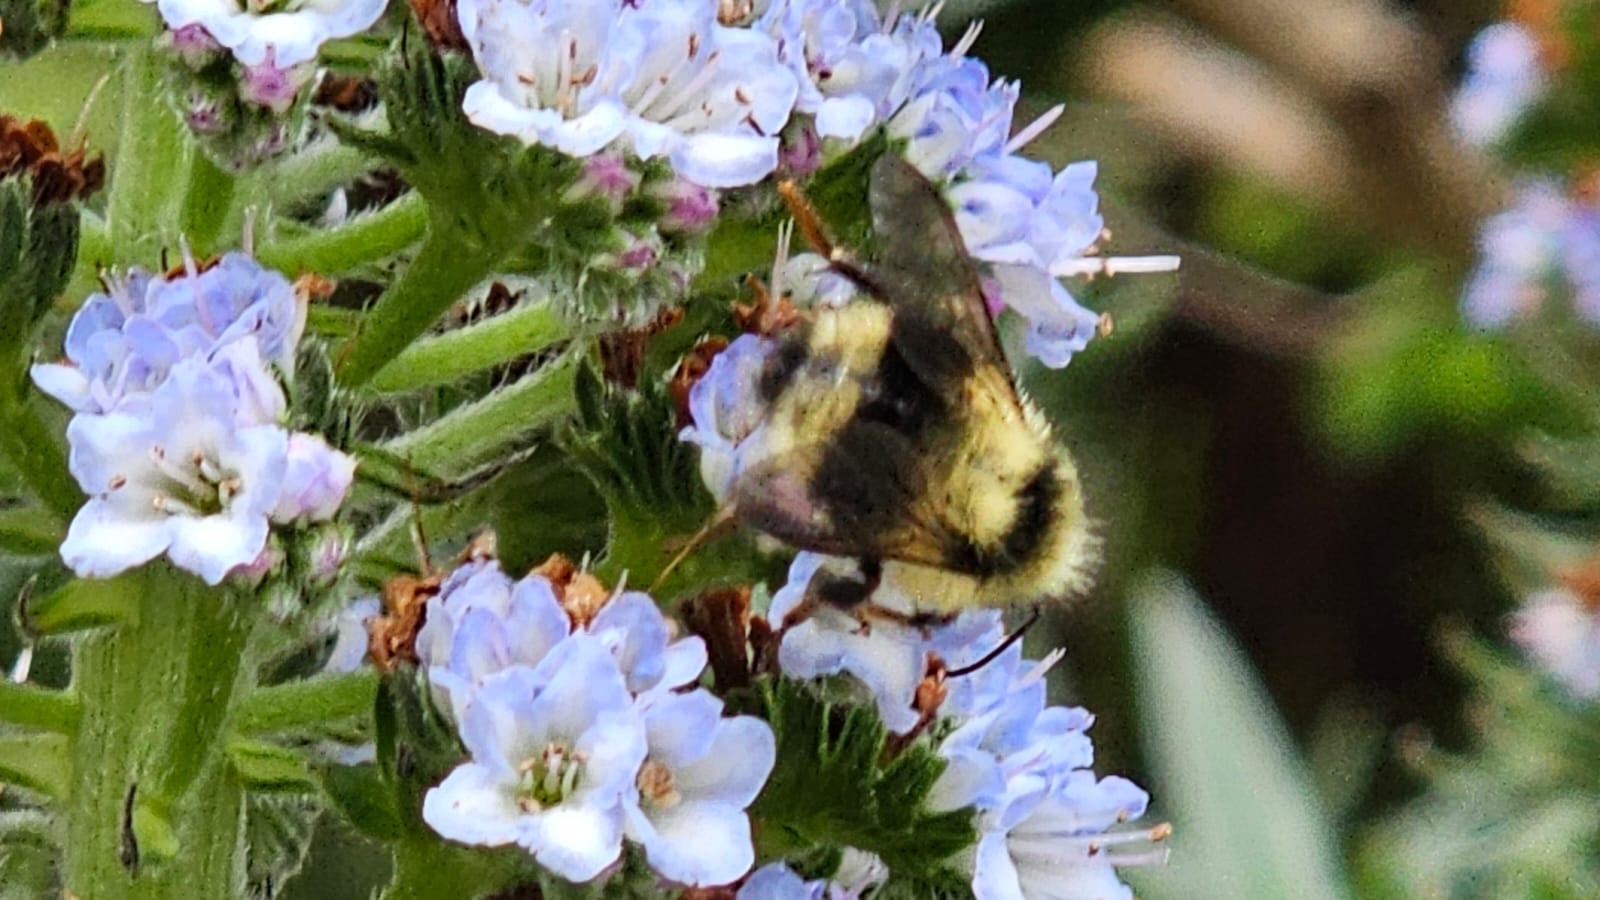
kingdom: Animalia
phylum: Arthropoda
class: Insecta
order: Hymenoptera
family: Apidae
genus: Bombus
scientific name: Bombus melanopygus
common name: Black tail bumble bee
